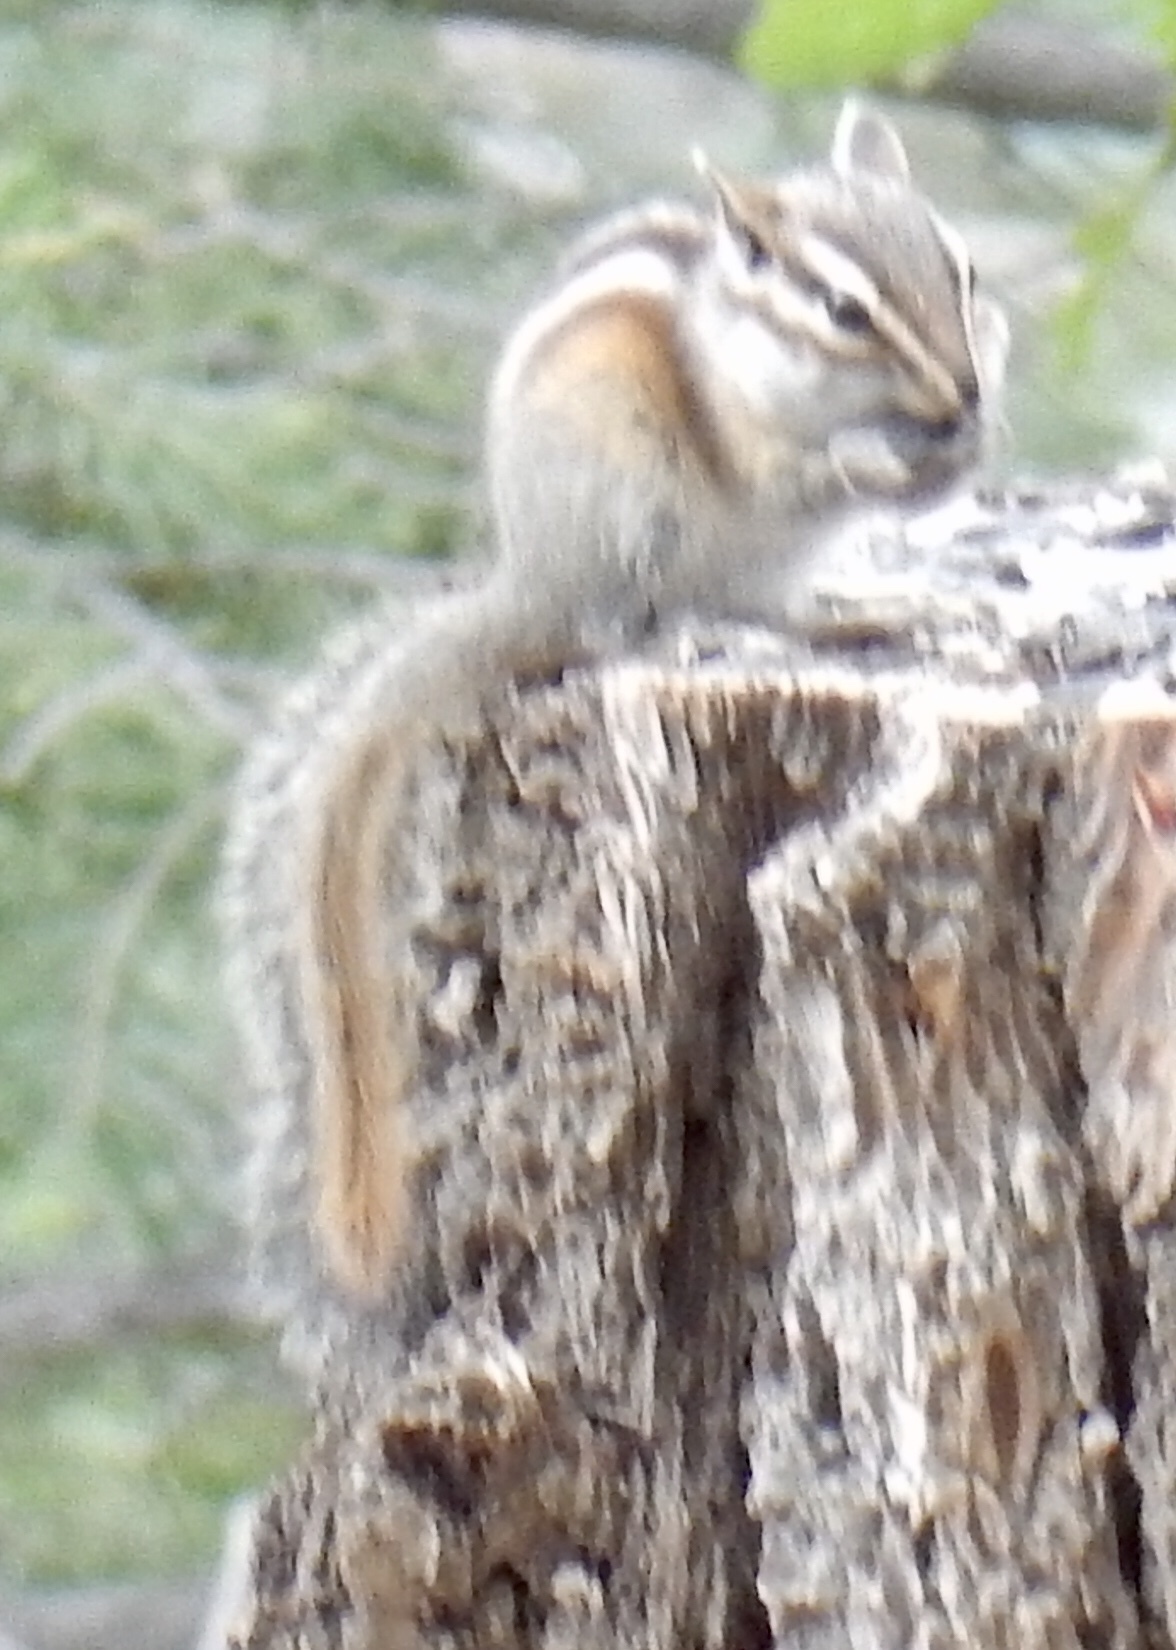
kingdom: Animalia
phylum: Chordata
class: Mammalia
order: Rodentia
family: Sciuridae
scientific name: Sciuridae
